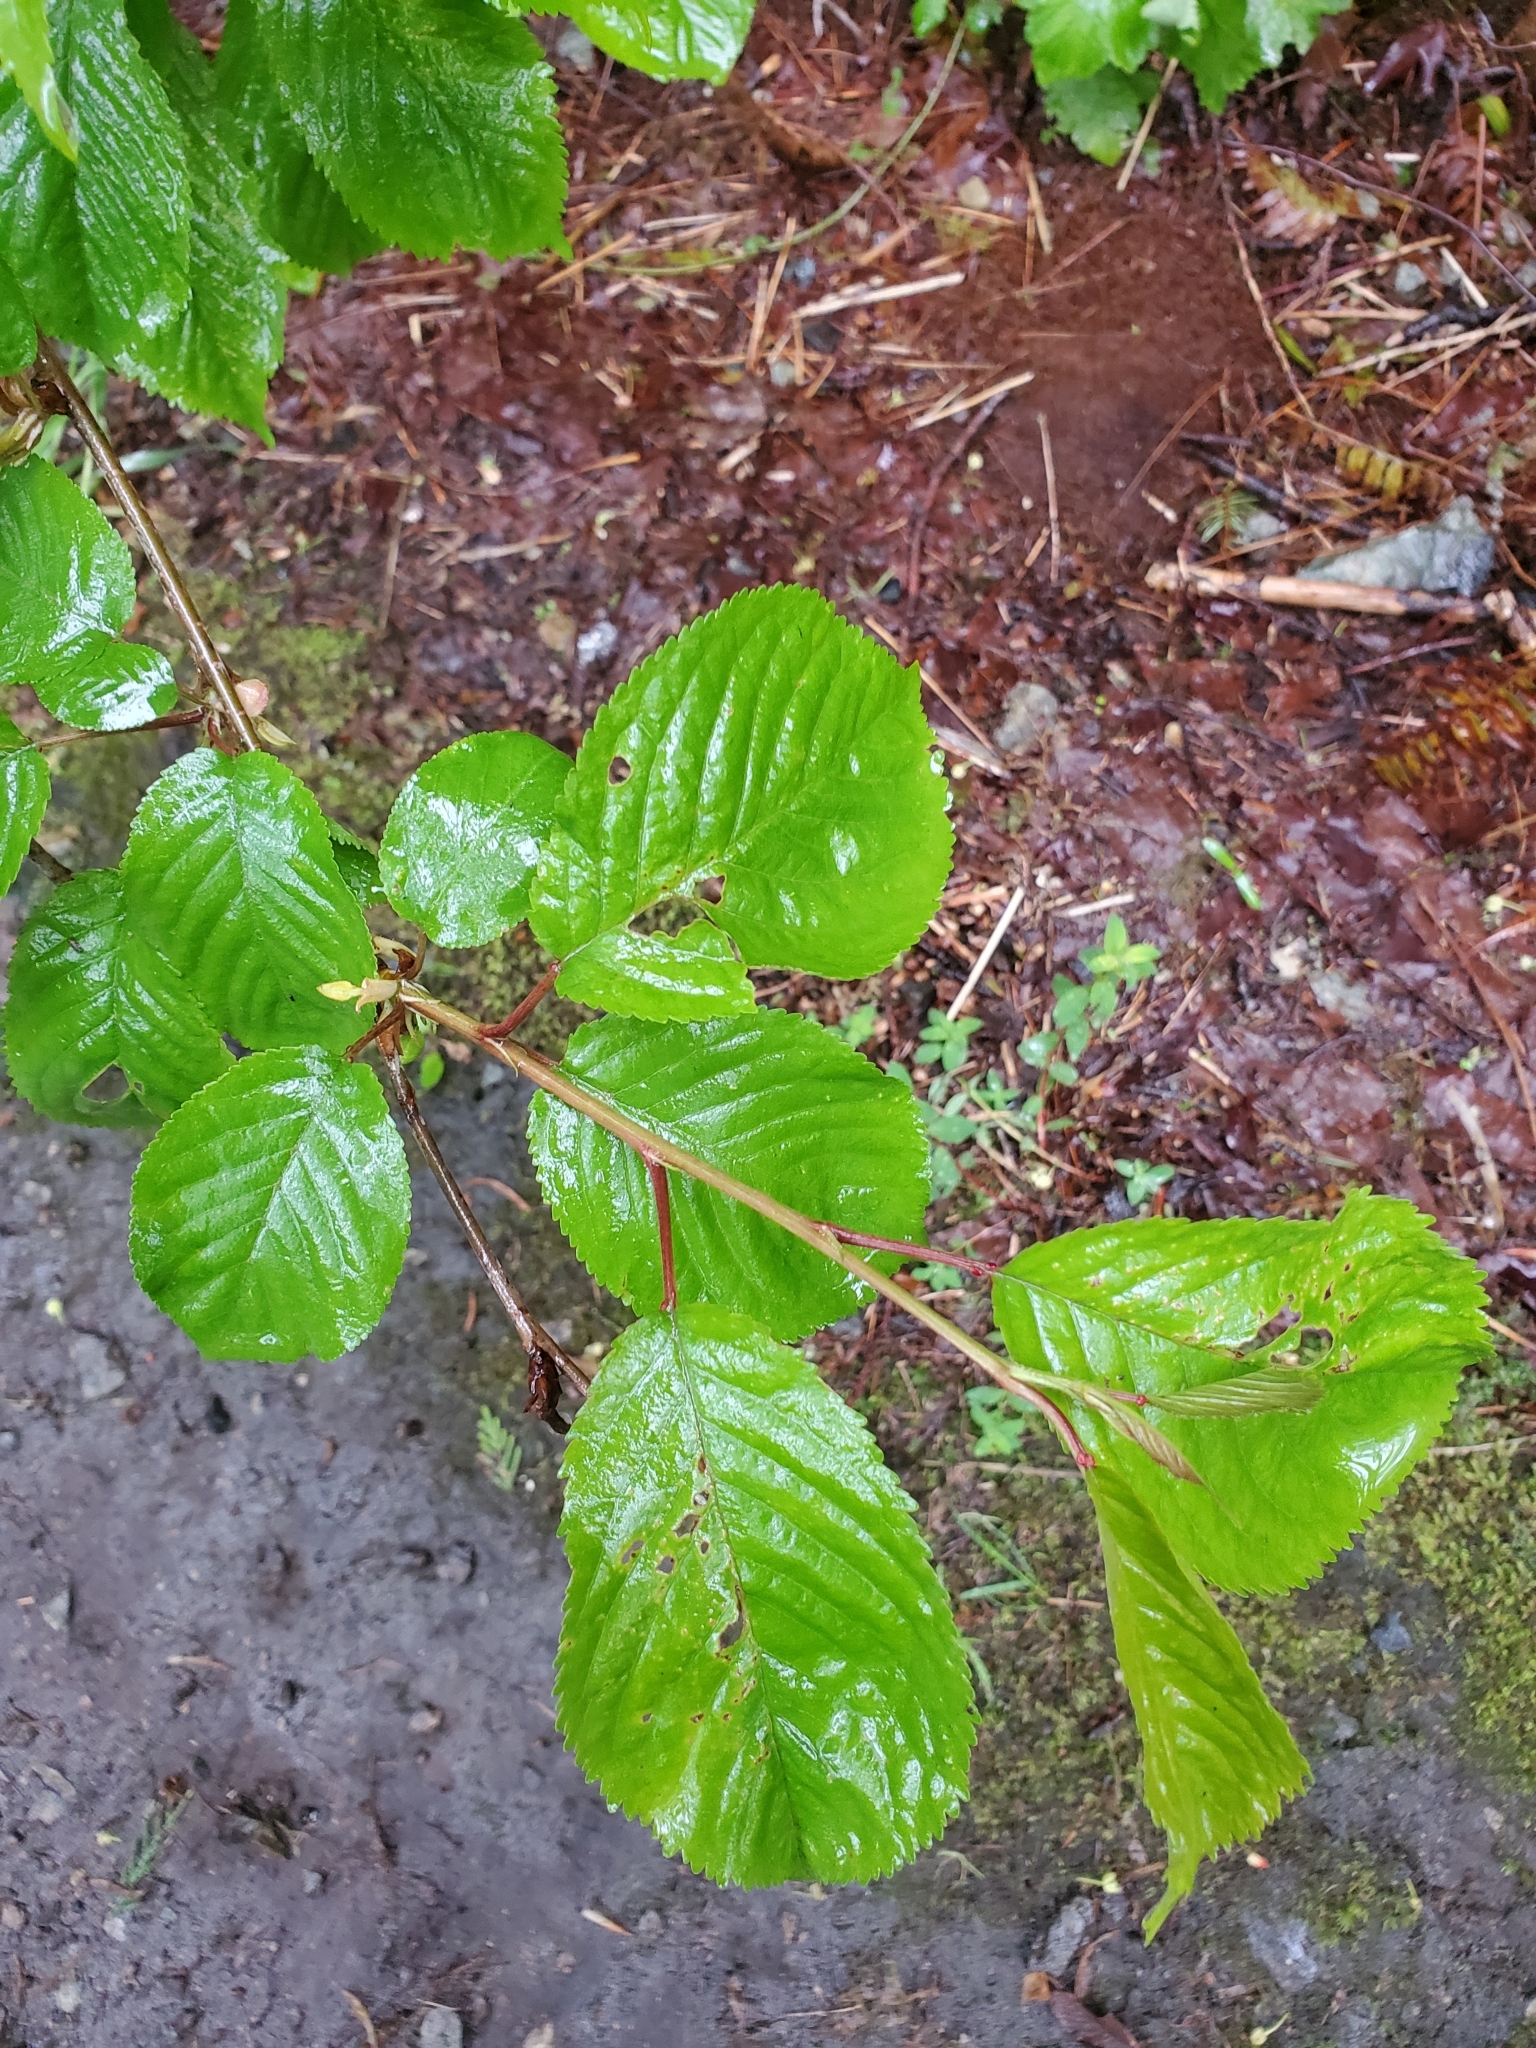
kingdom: Plantae
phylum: Tracheophyta
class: Magnoliopsida
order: Rosales
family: Rosaceae
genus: Prunus
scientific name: Prunus avium
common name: Sweet cherry
